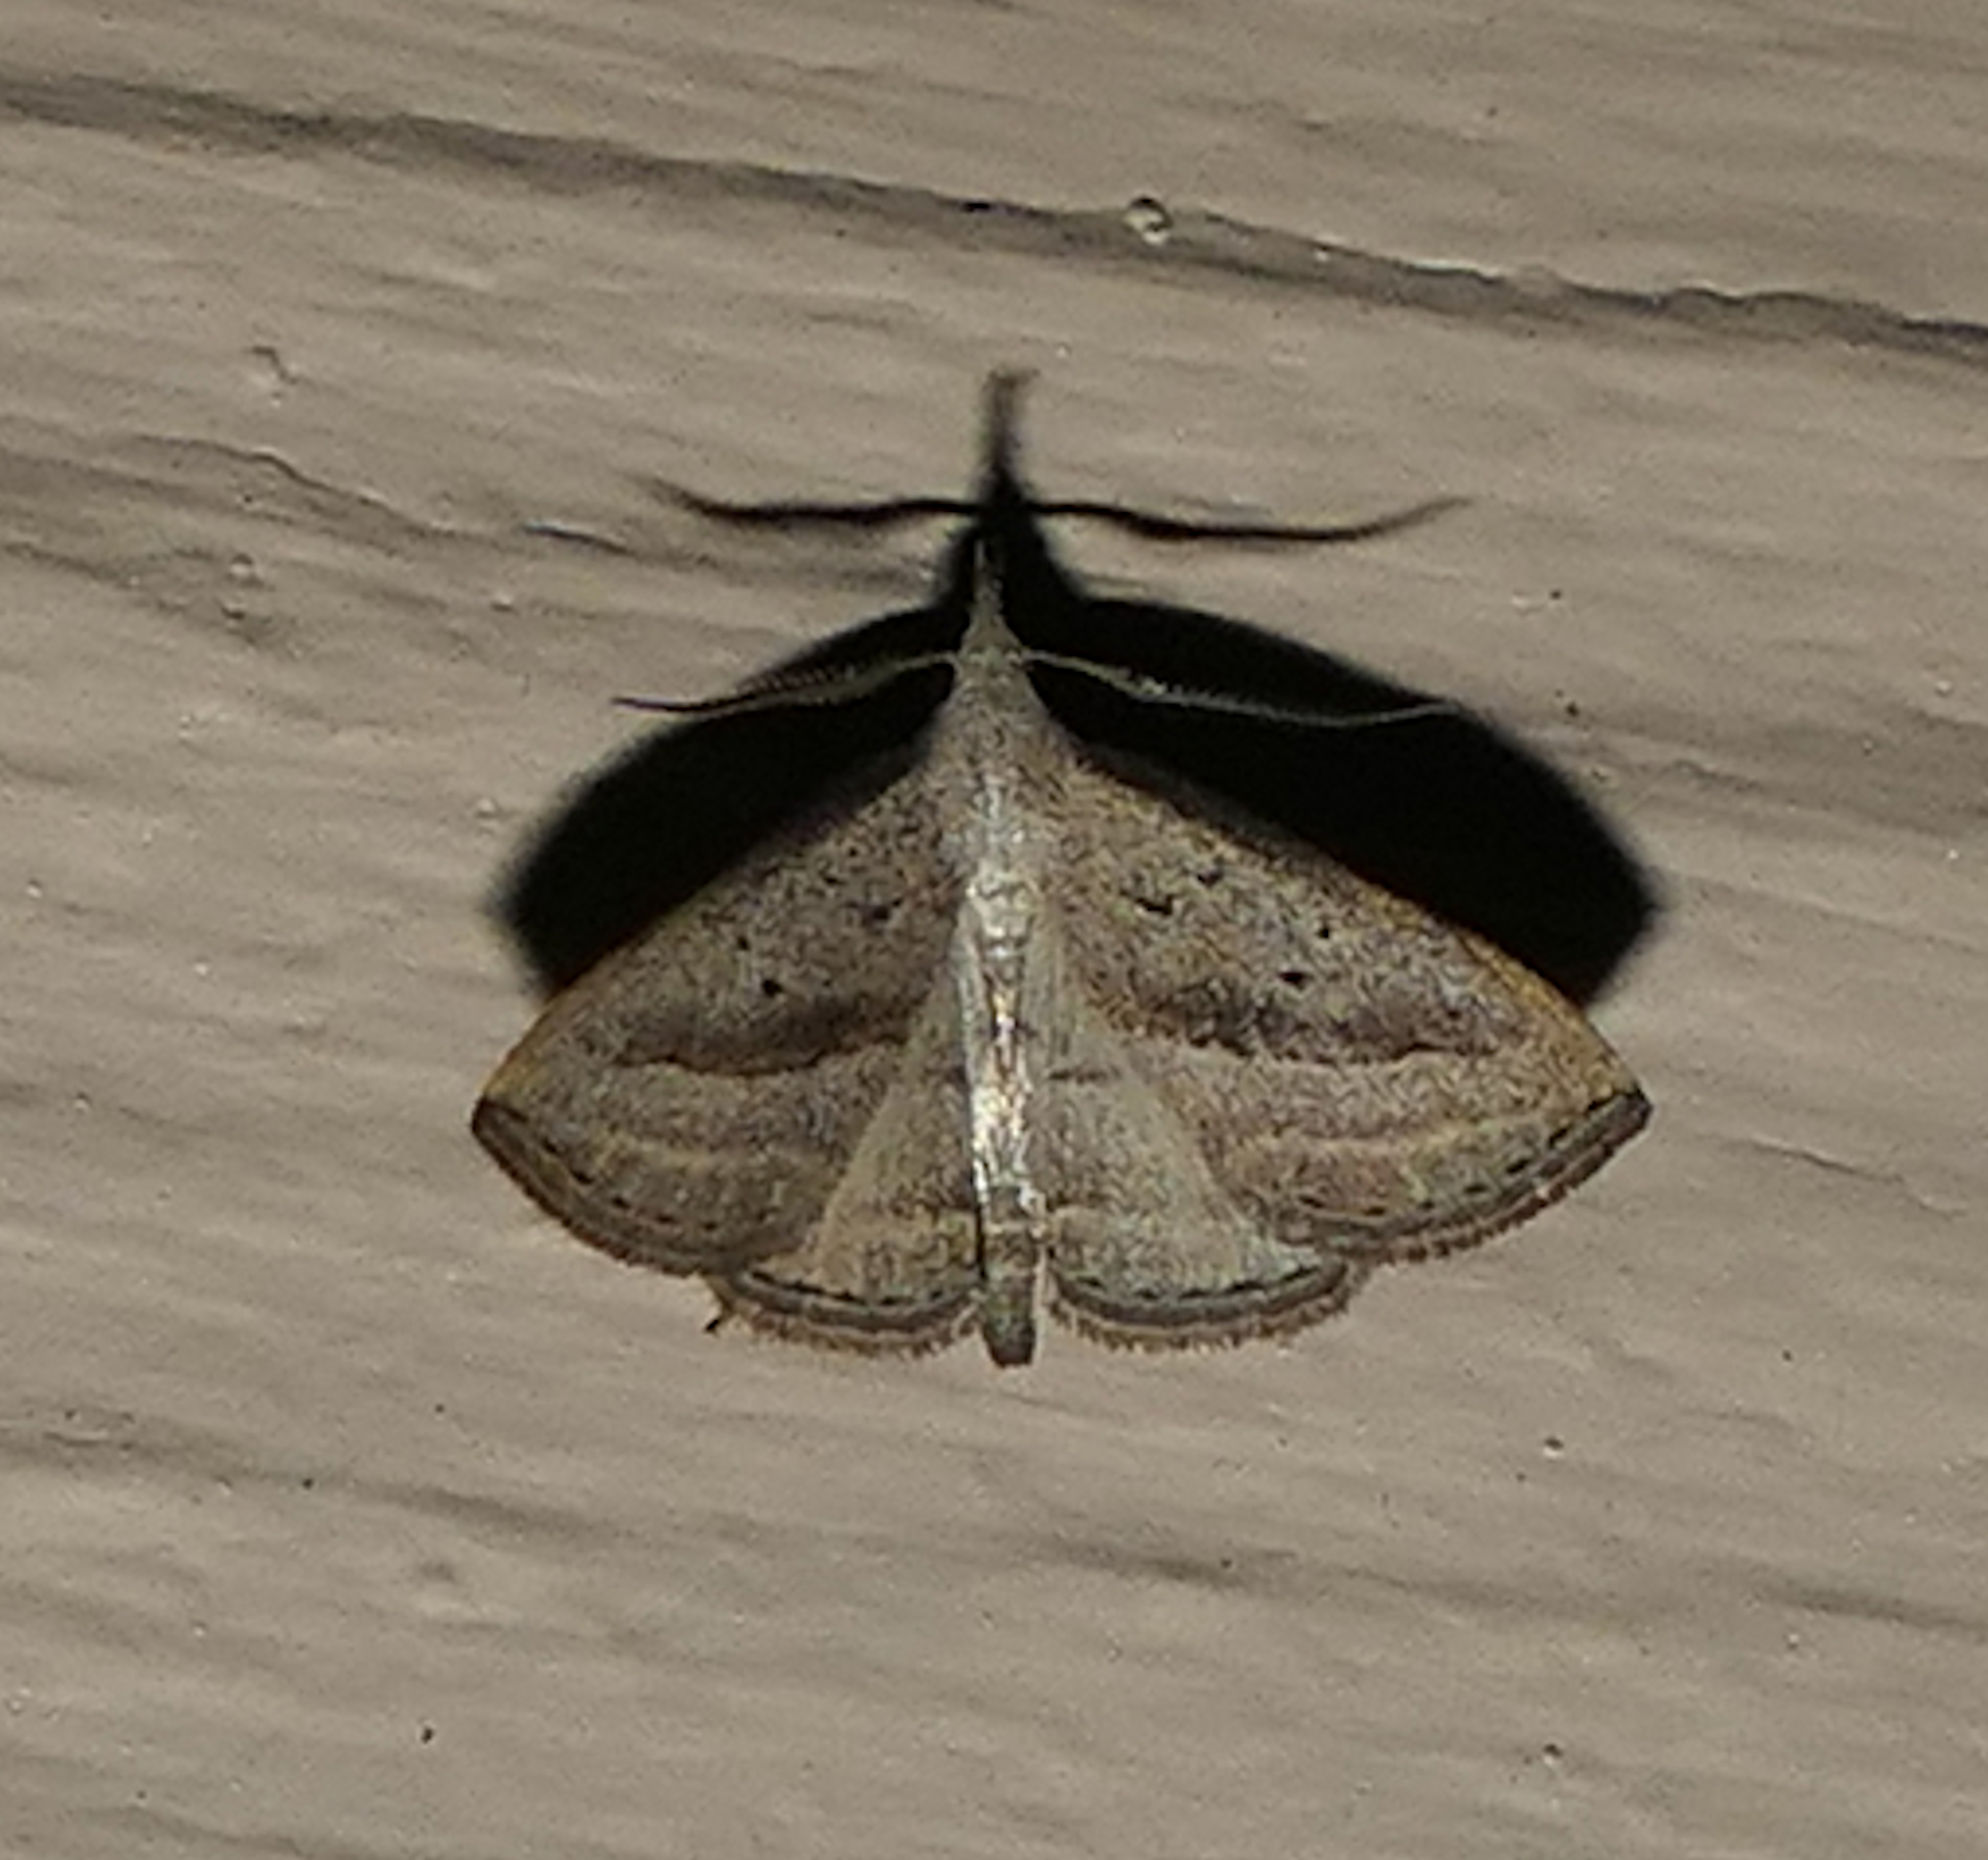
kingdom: Animalia
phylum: Arthropoda
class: Insecta
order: Lepidoptera
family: Erebidae
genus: Macrochilo
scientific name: Macrochilo hypocritalis
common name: Twin-dotted owlet
